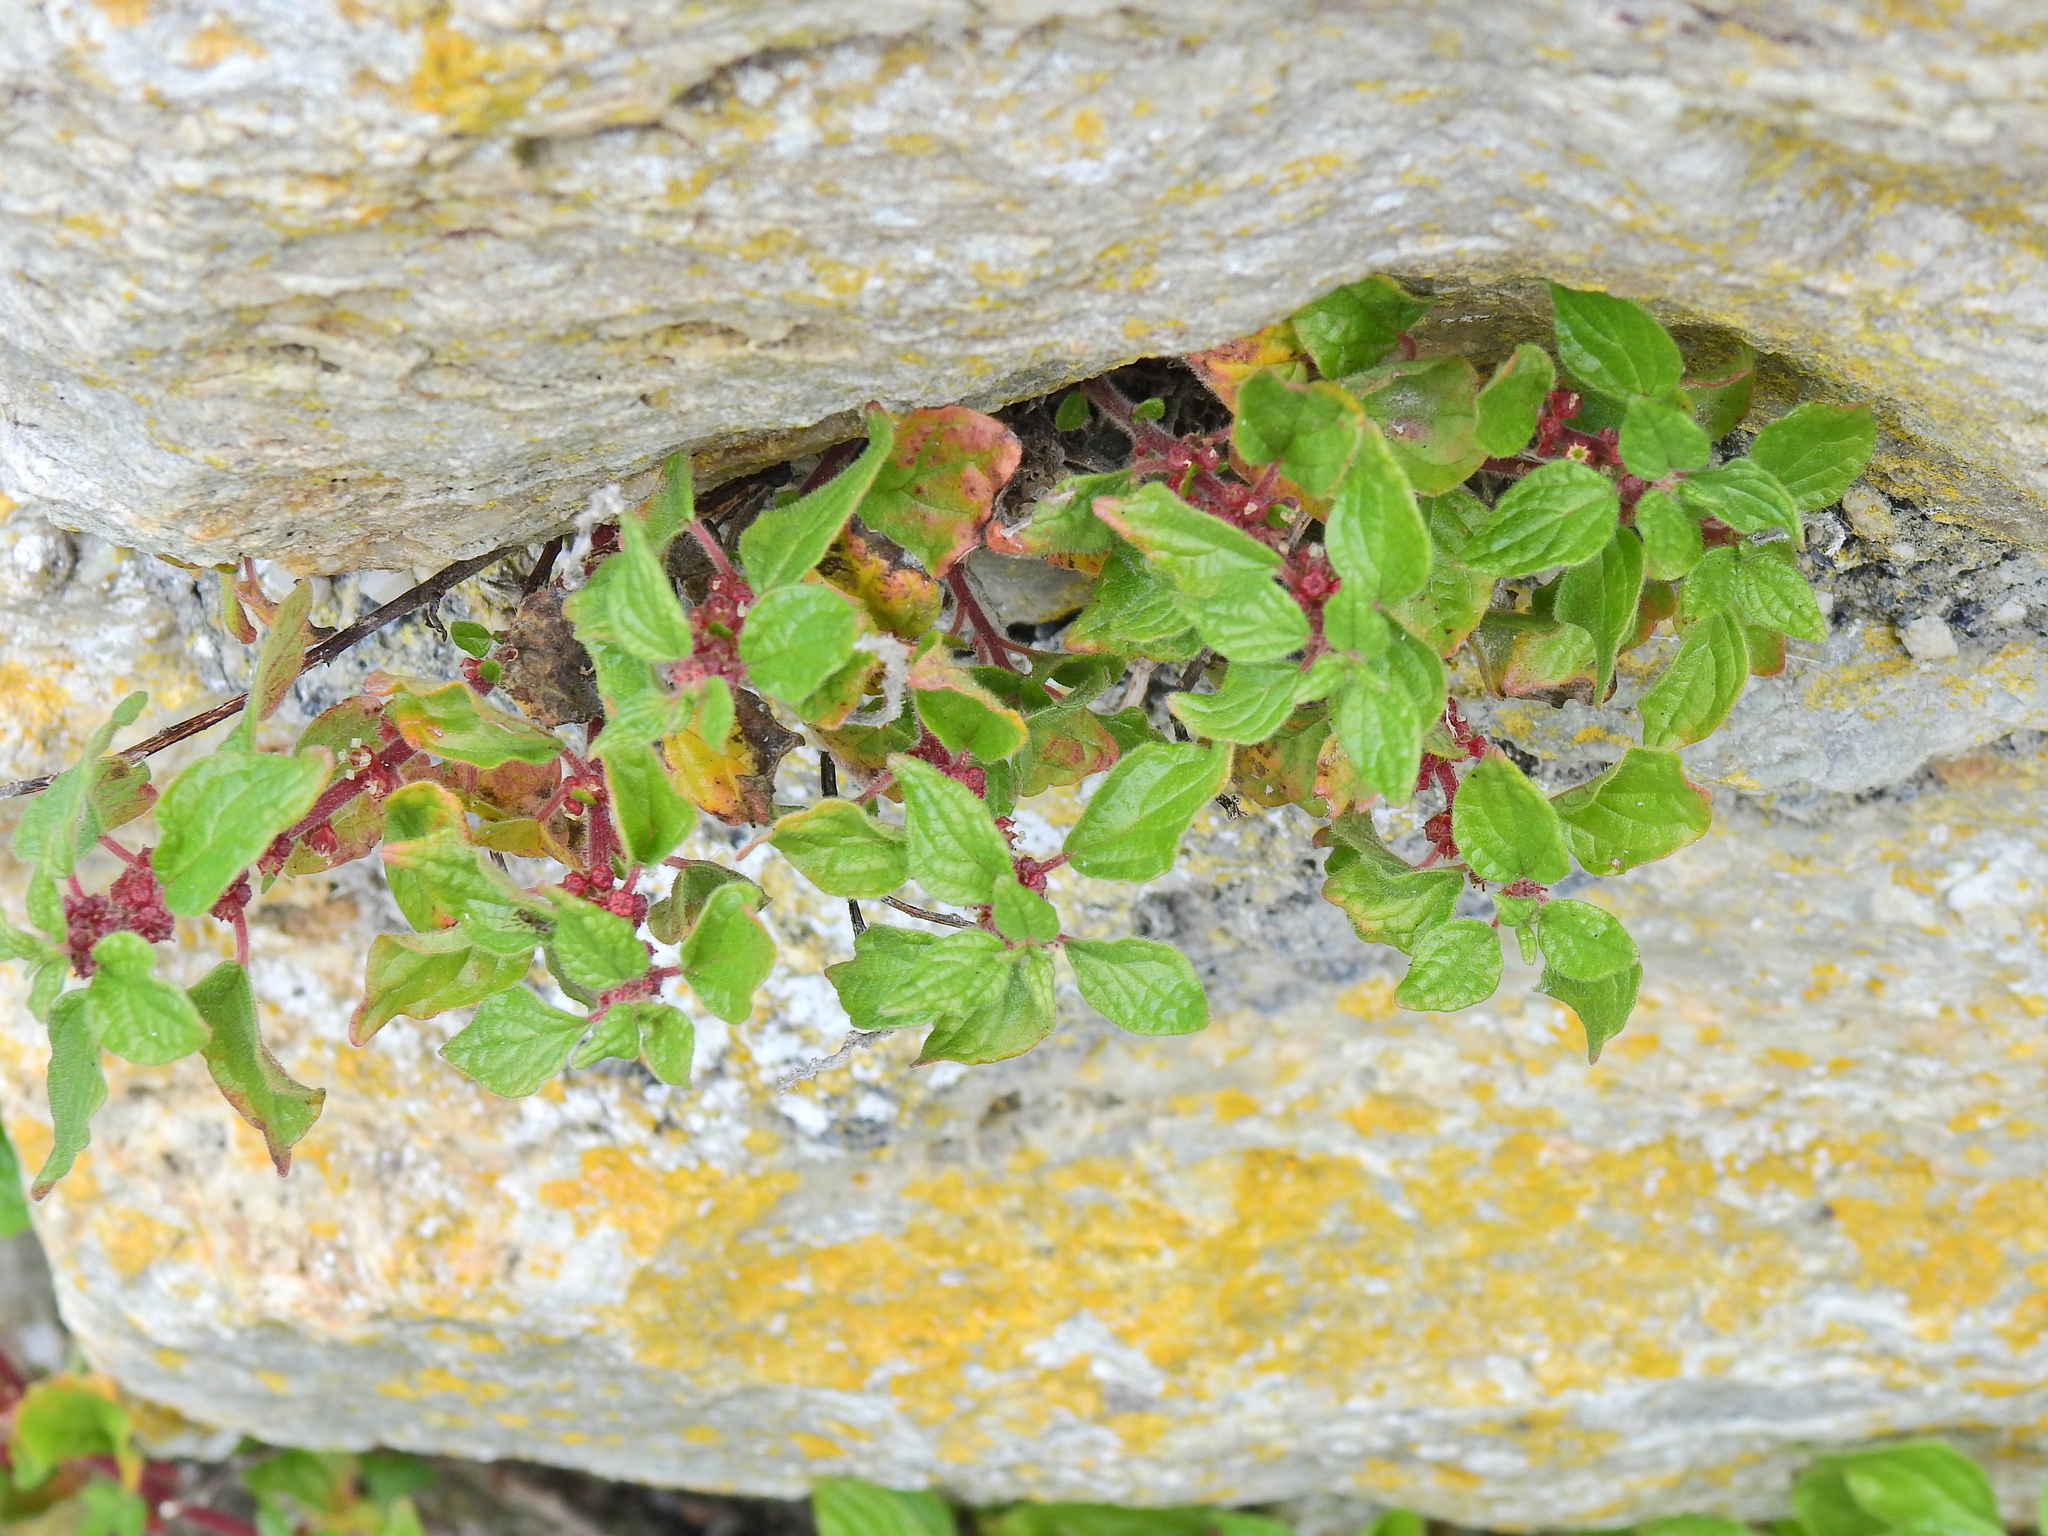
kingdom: Plantae
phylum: Tracheophyta
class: Magnoliopsida
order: Rosales
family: Urticaceae
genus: Parietaria
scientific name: Parietaria judaica
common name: Pellitory-of-the-wall
